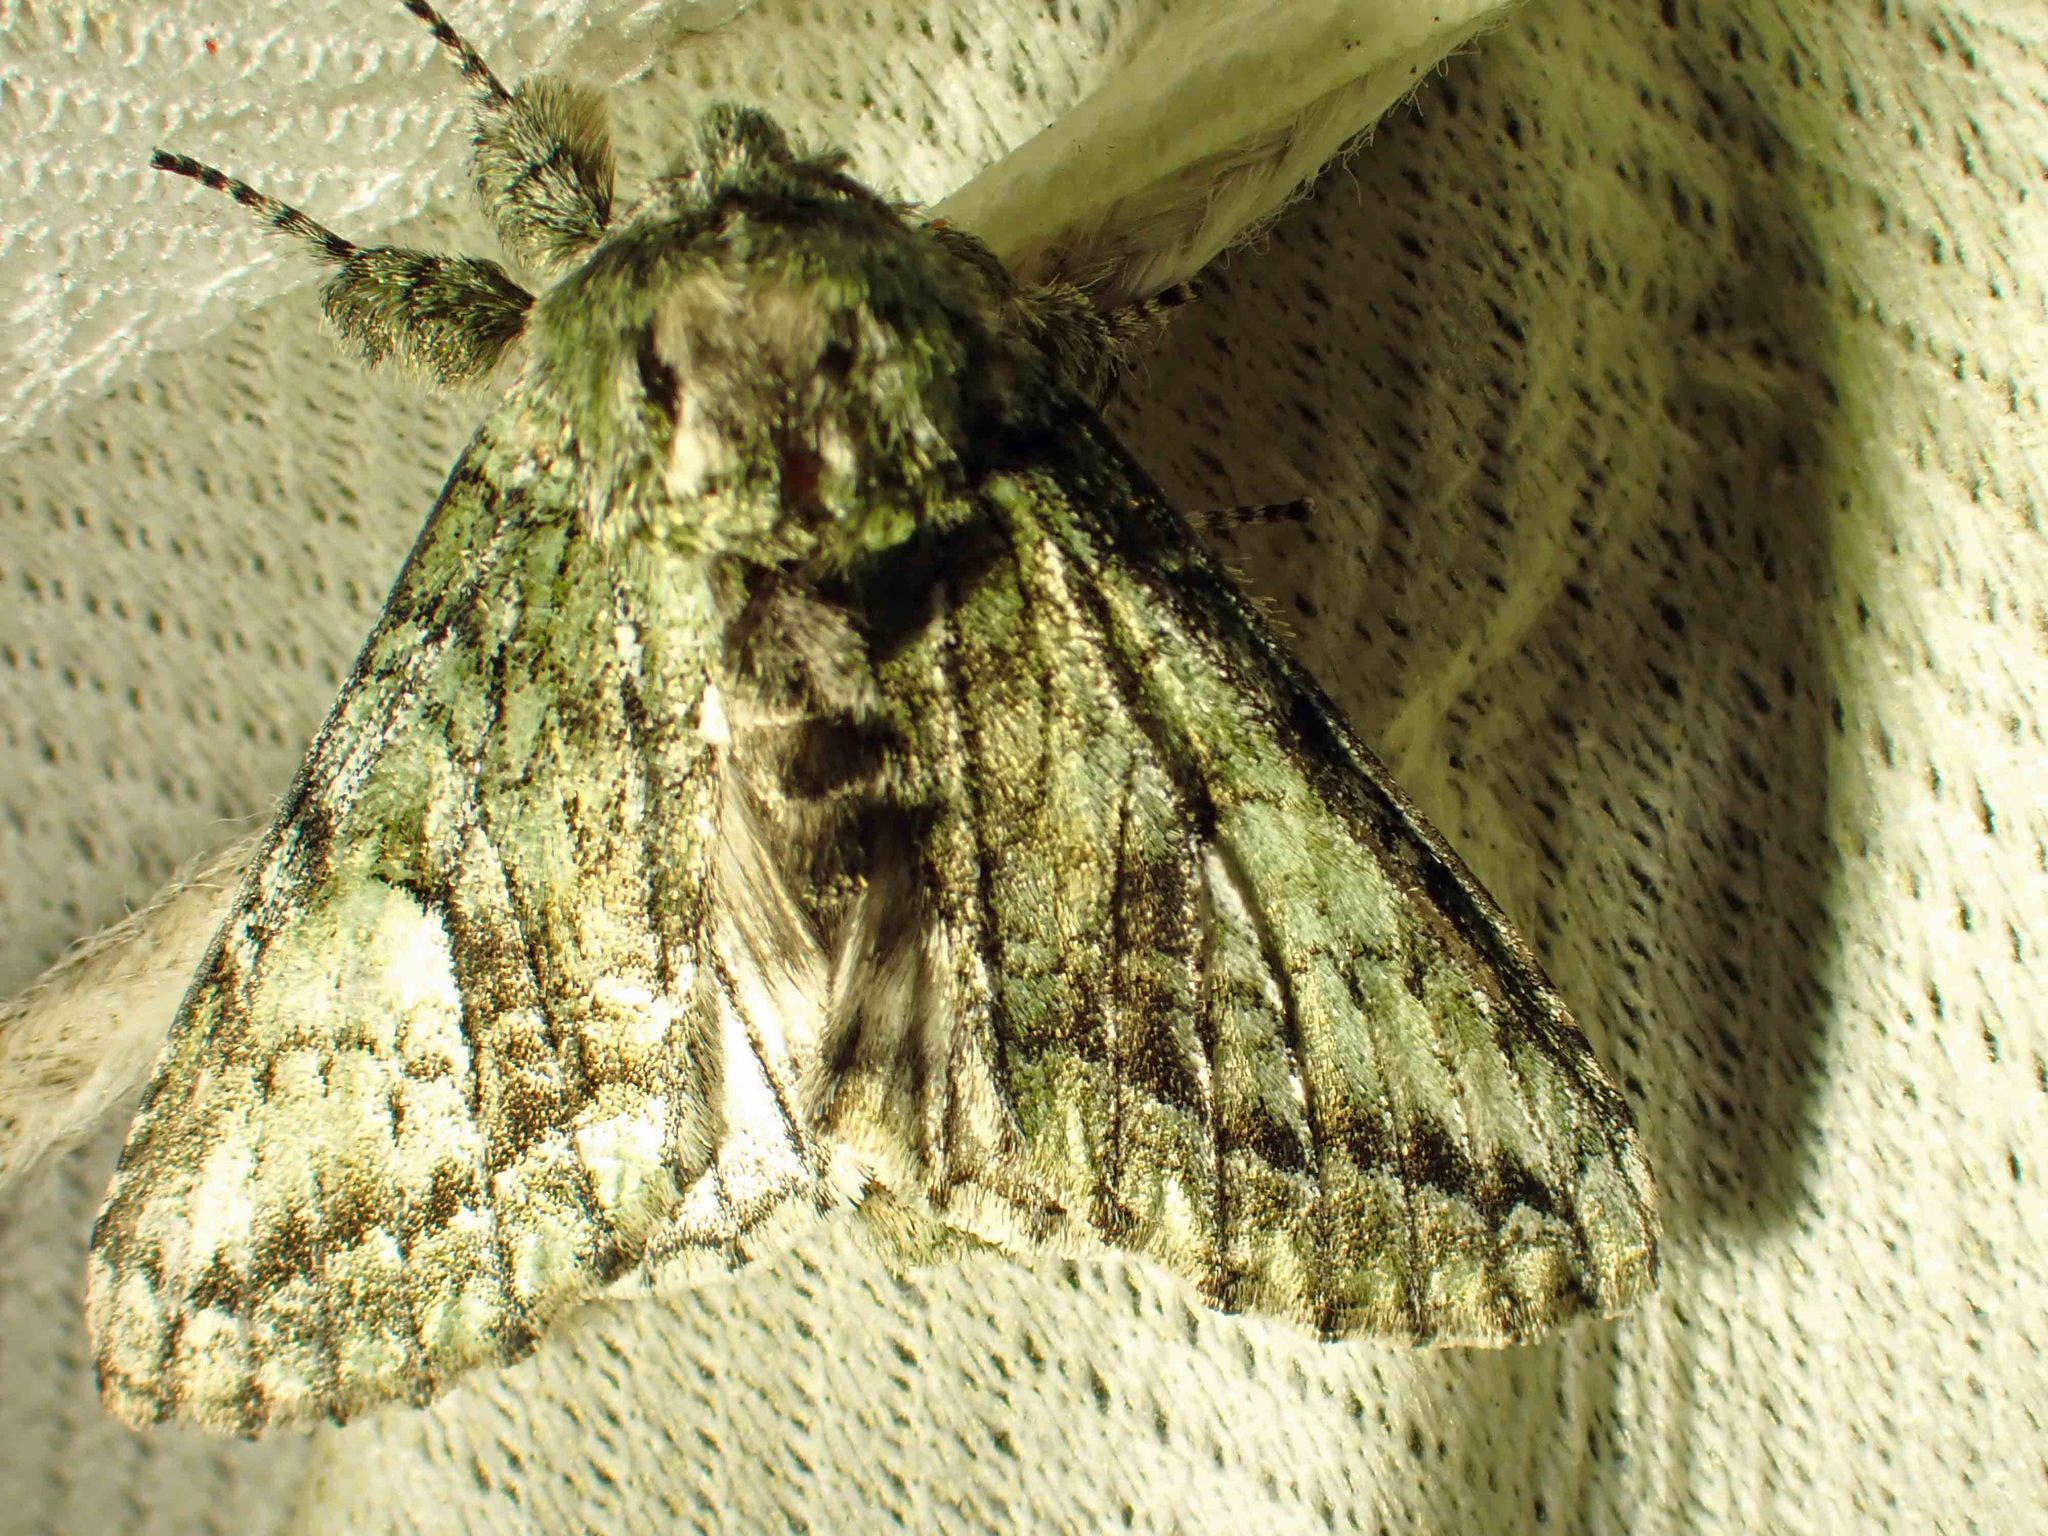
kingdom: Animalia
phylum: Arthropoda
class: Insecta
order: Lepidoptera
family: Notodontidae
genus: Heterocampa
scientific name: Heterocampa
